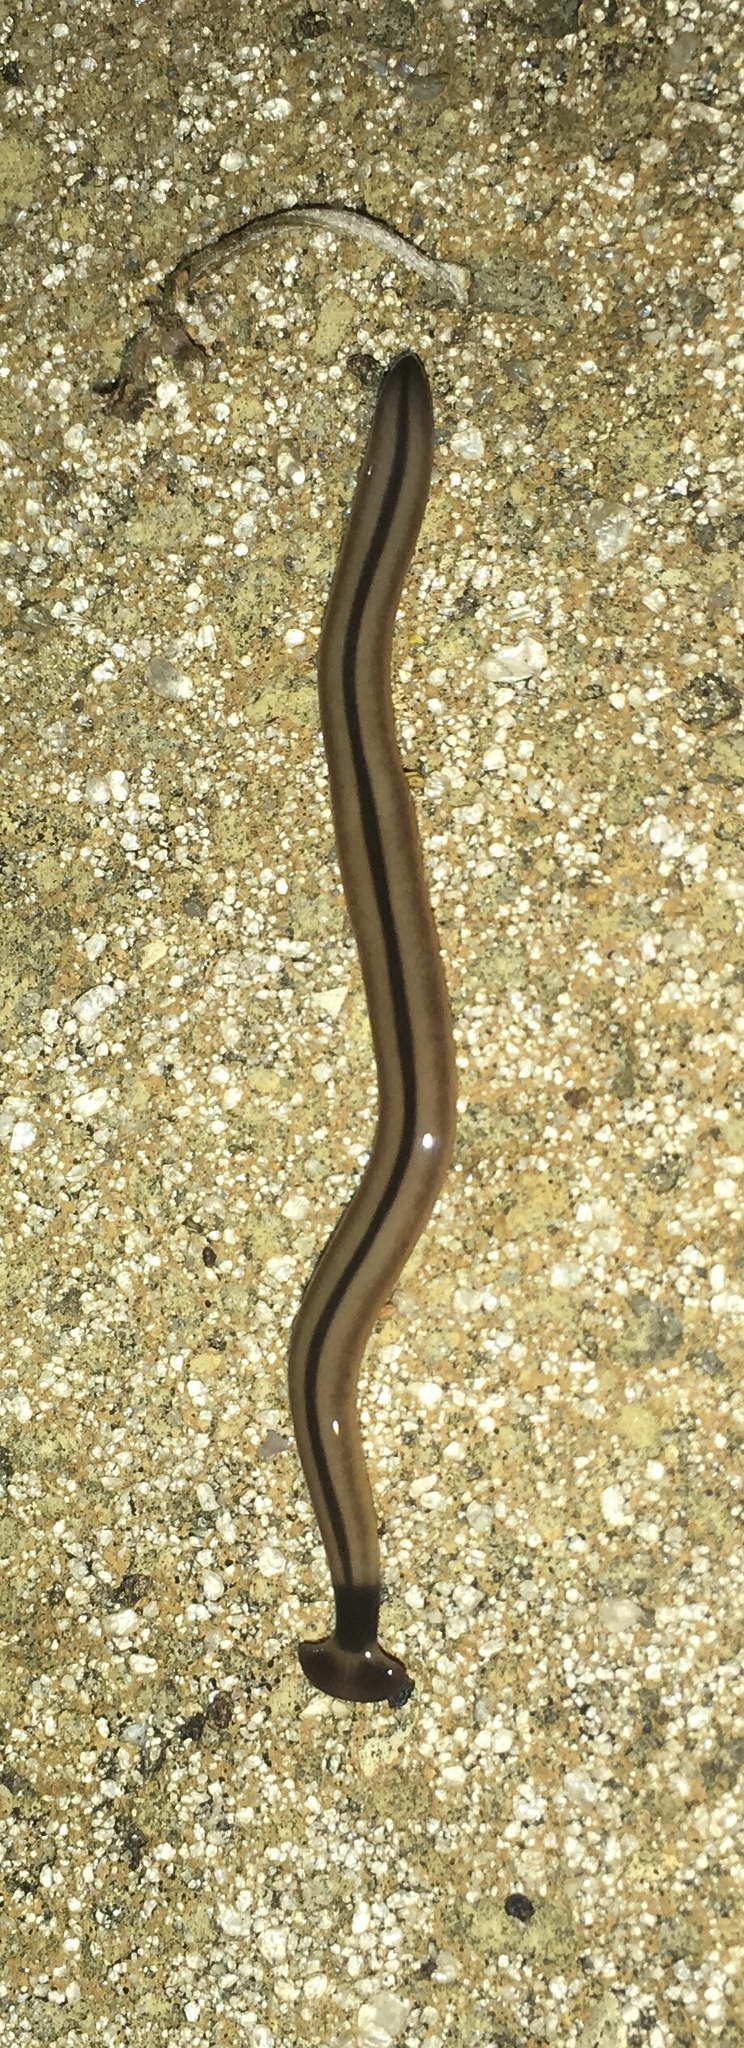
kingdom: Animalia
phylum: Platyhelminthes
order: Tricladida
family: Geoplanidae
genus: Bipalium
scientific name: Bipalium vagum
